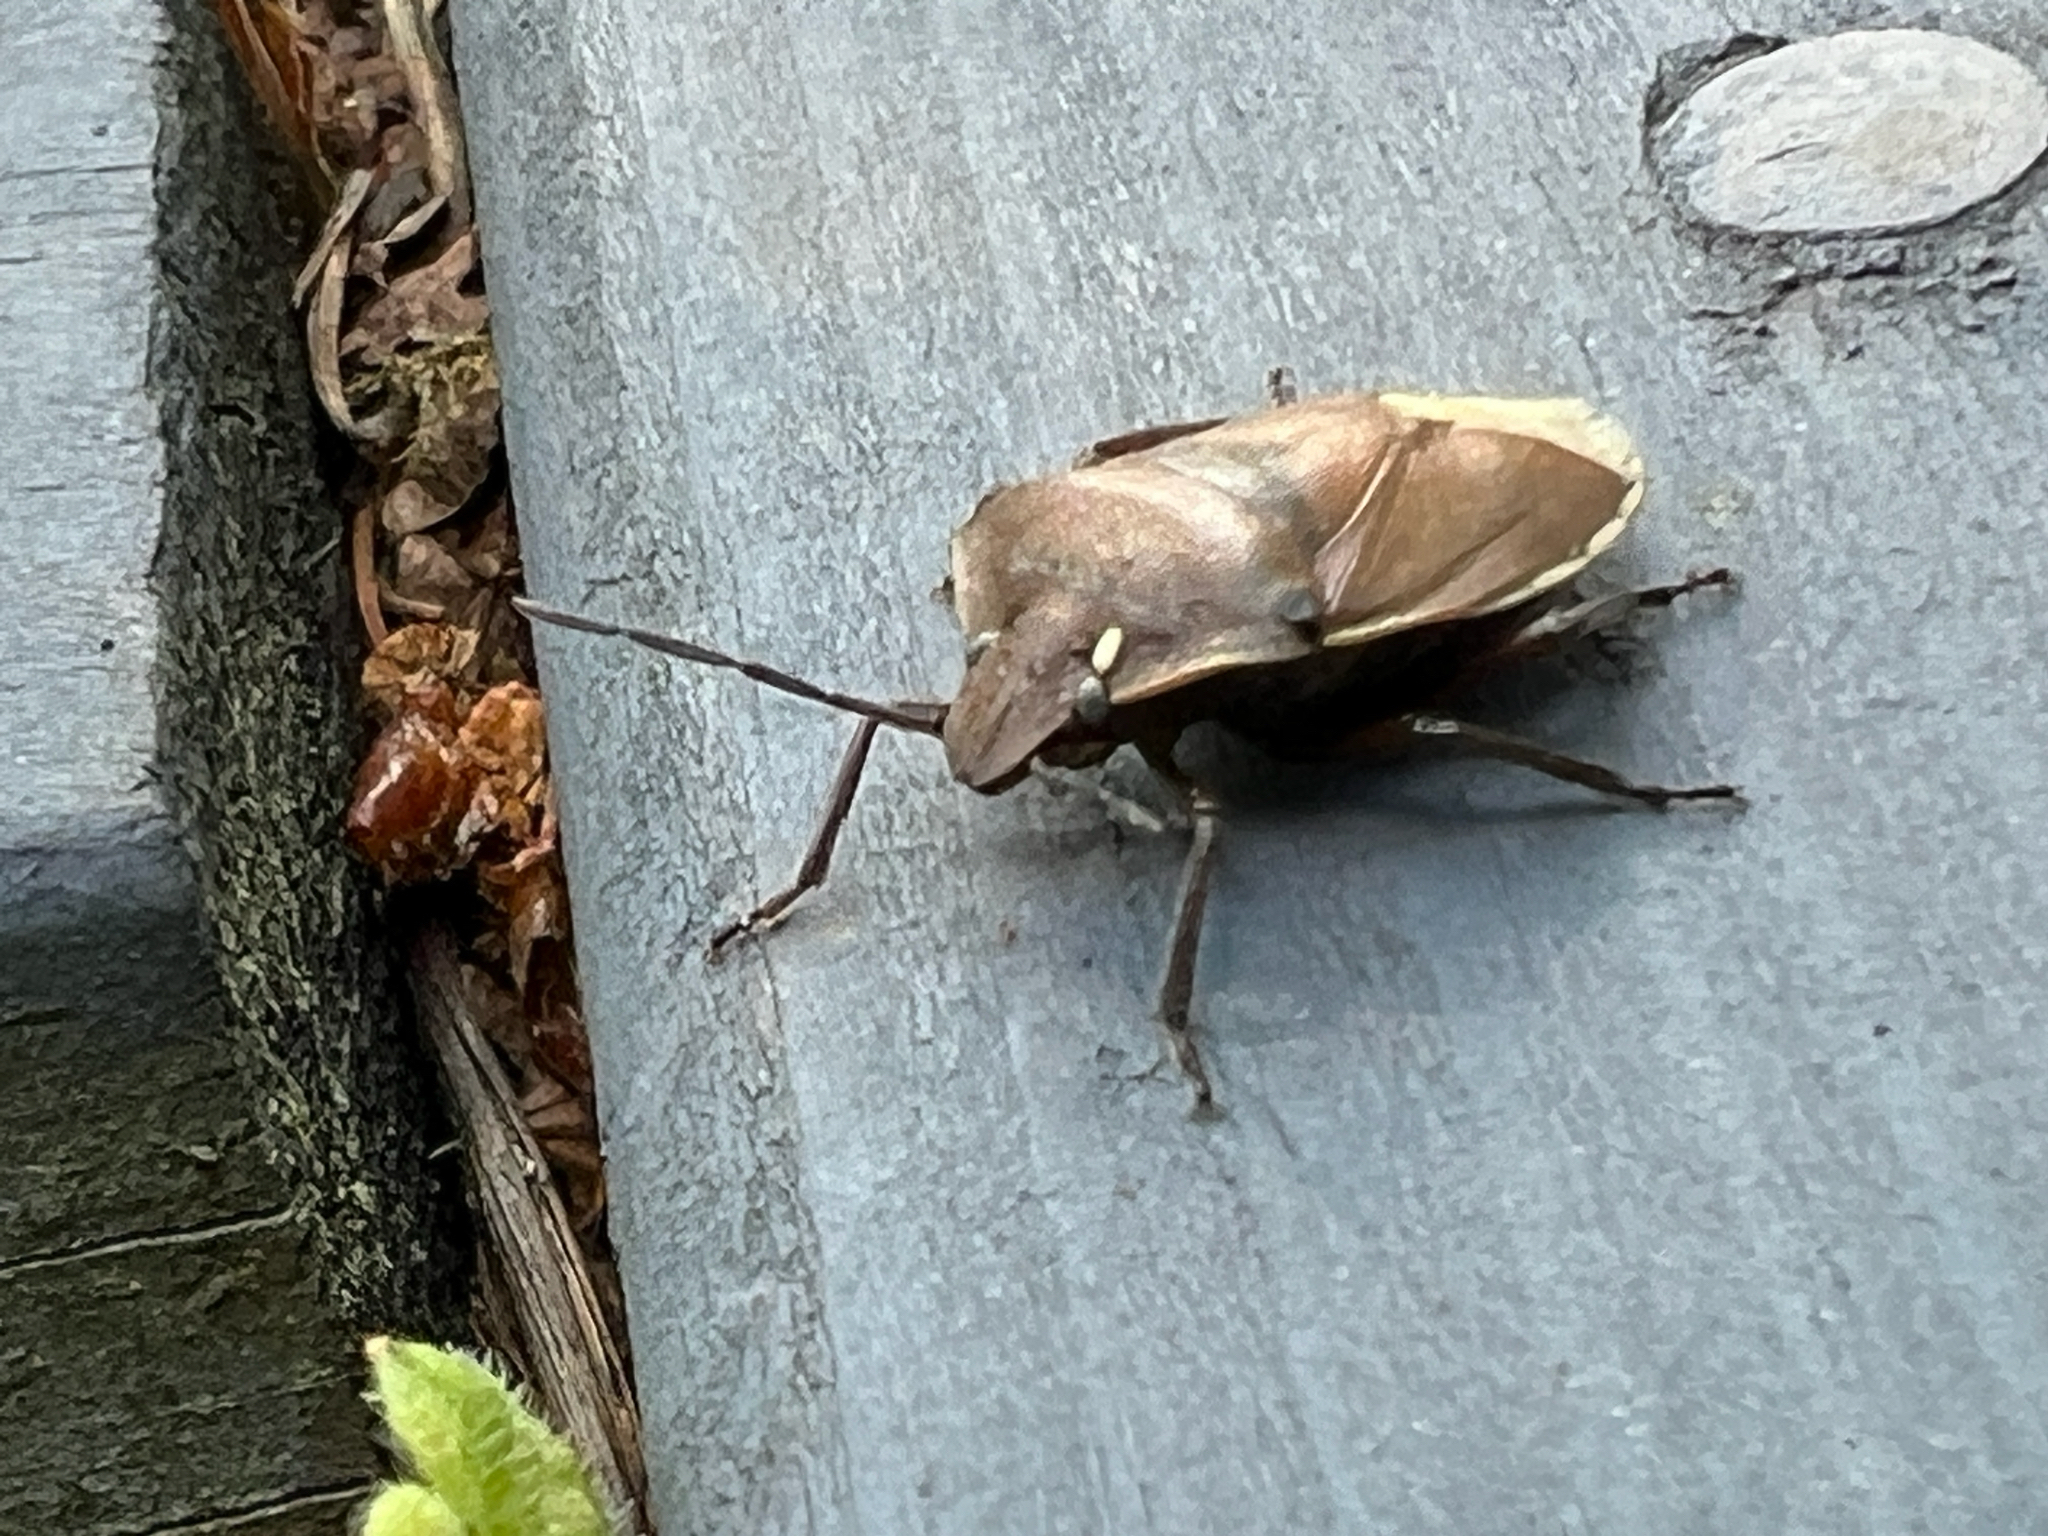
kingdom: Animalia
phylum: Arthropoda
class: Insecta
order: Hemiptera
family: Pentatomidae
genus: Chlorochroa
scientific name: Chlorochroa pinicola
